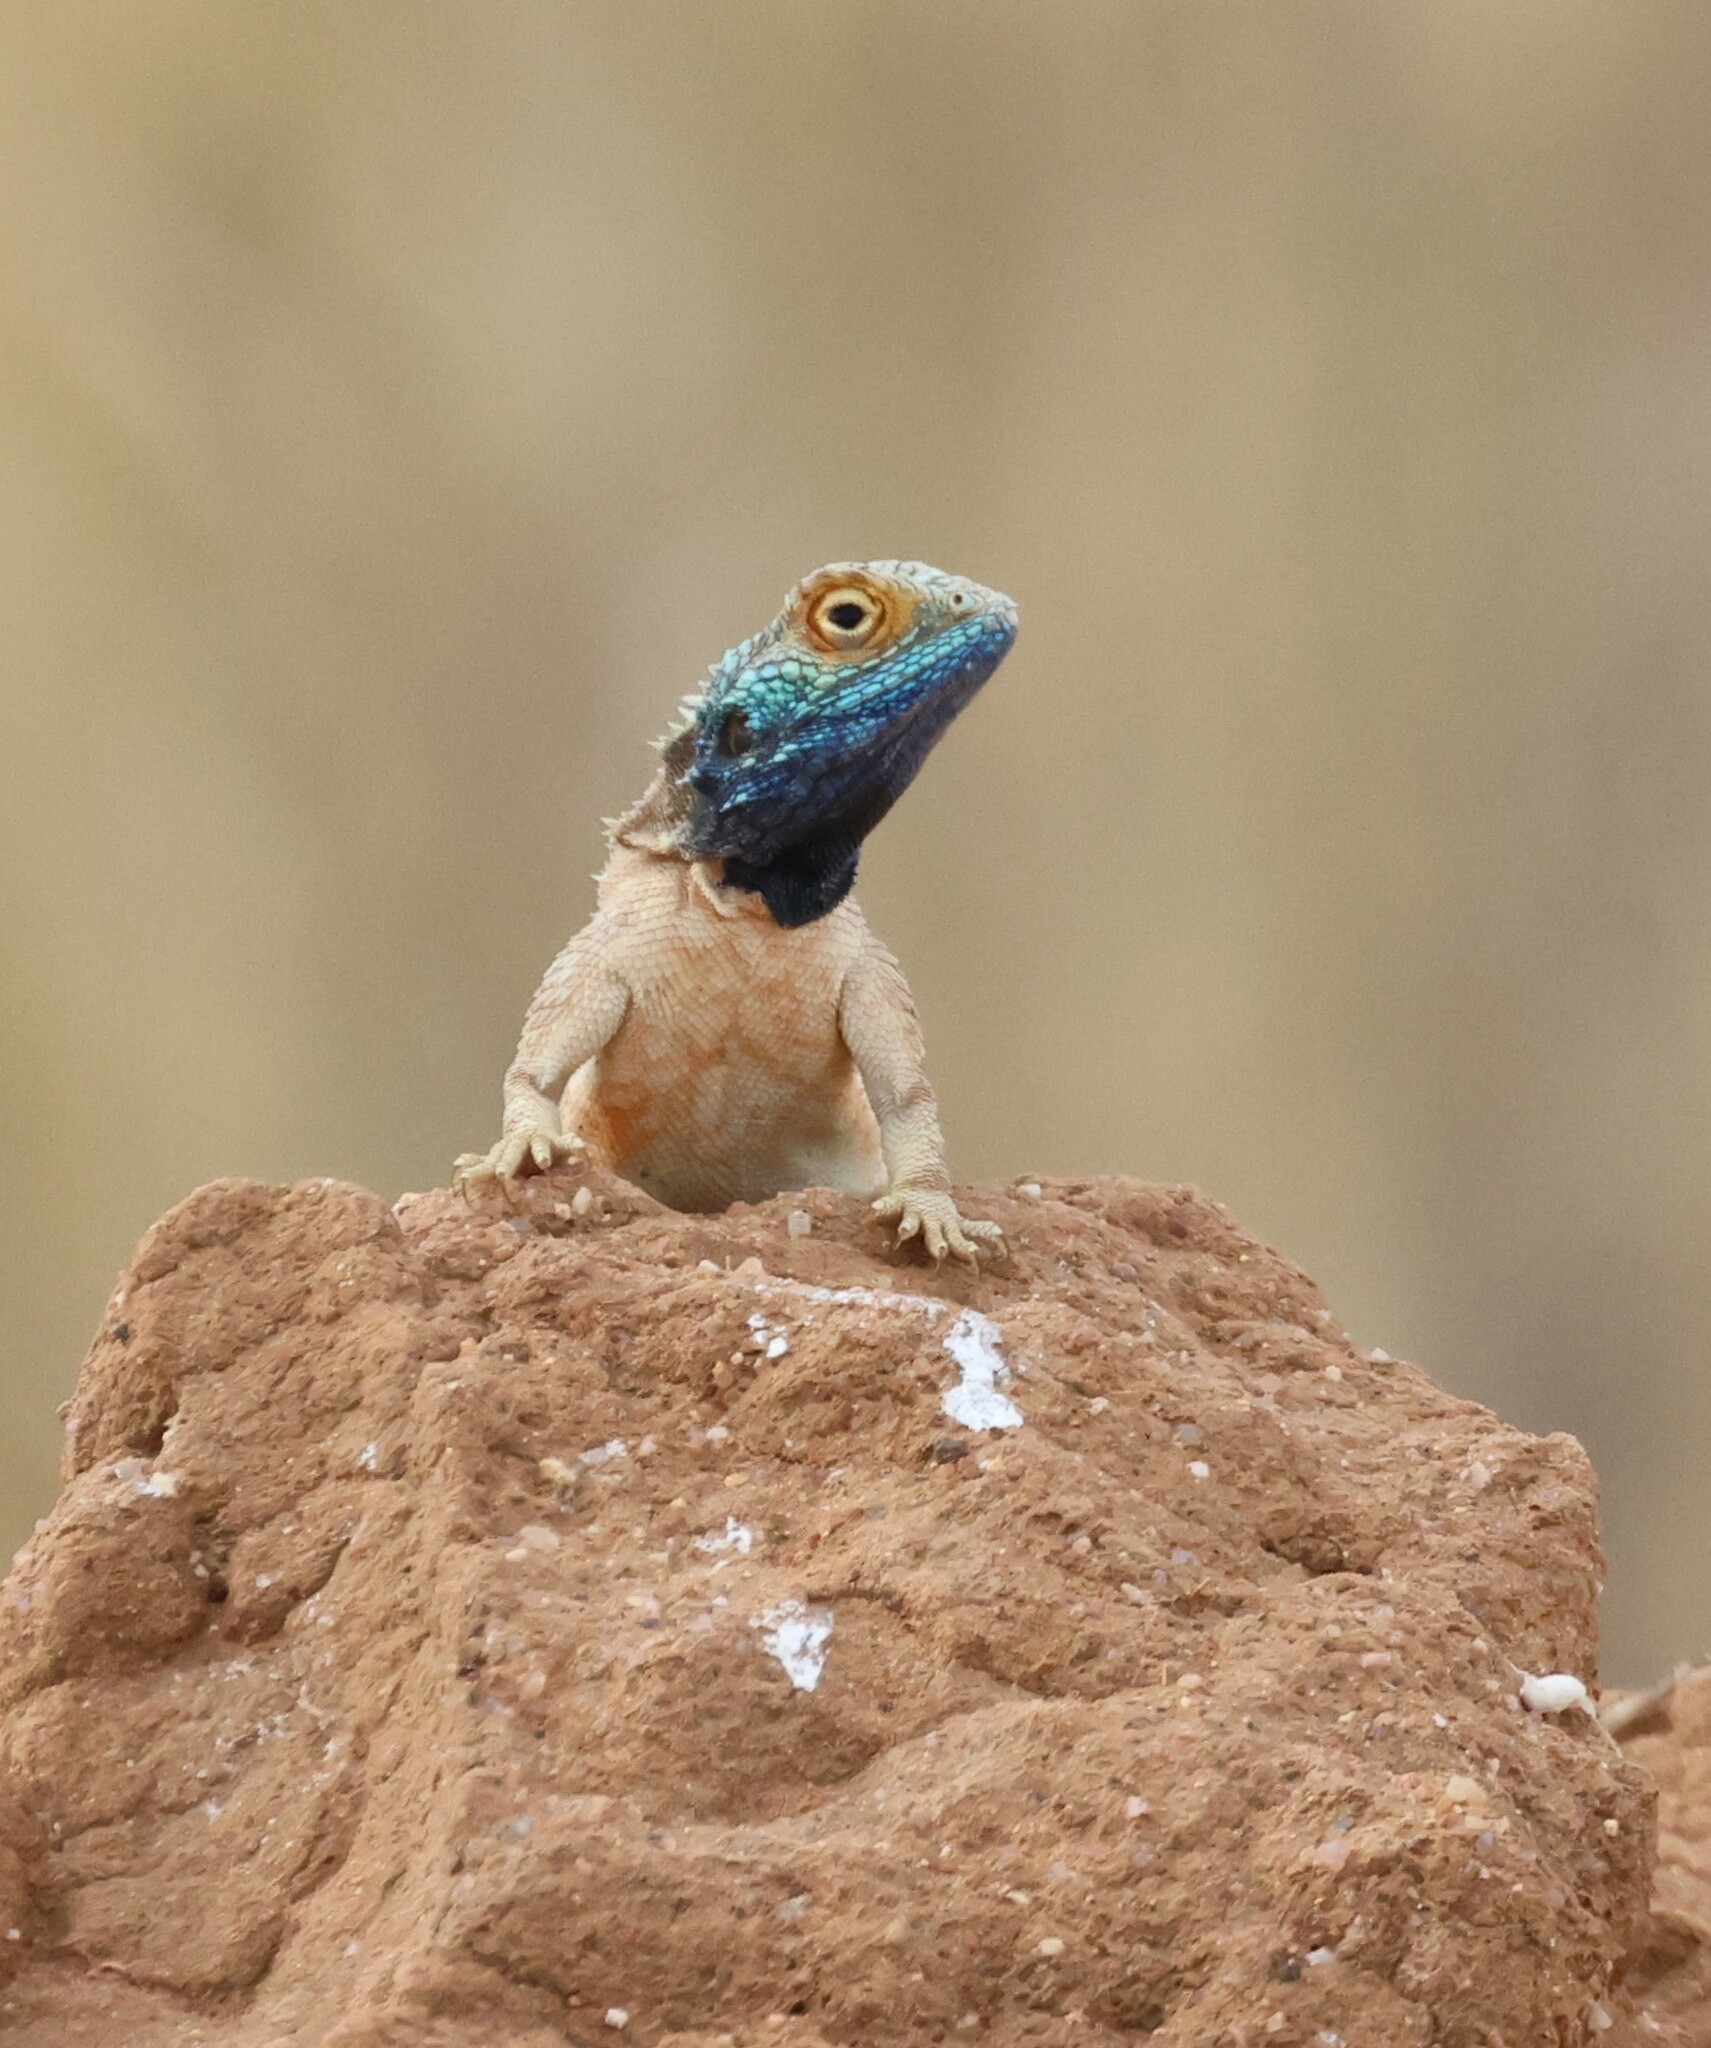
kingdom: Animalia
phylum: Chordata
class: Squamata
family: Agamidae
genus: Agama
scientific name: Agama aculeata
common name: Common ground agama
